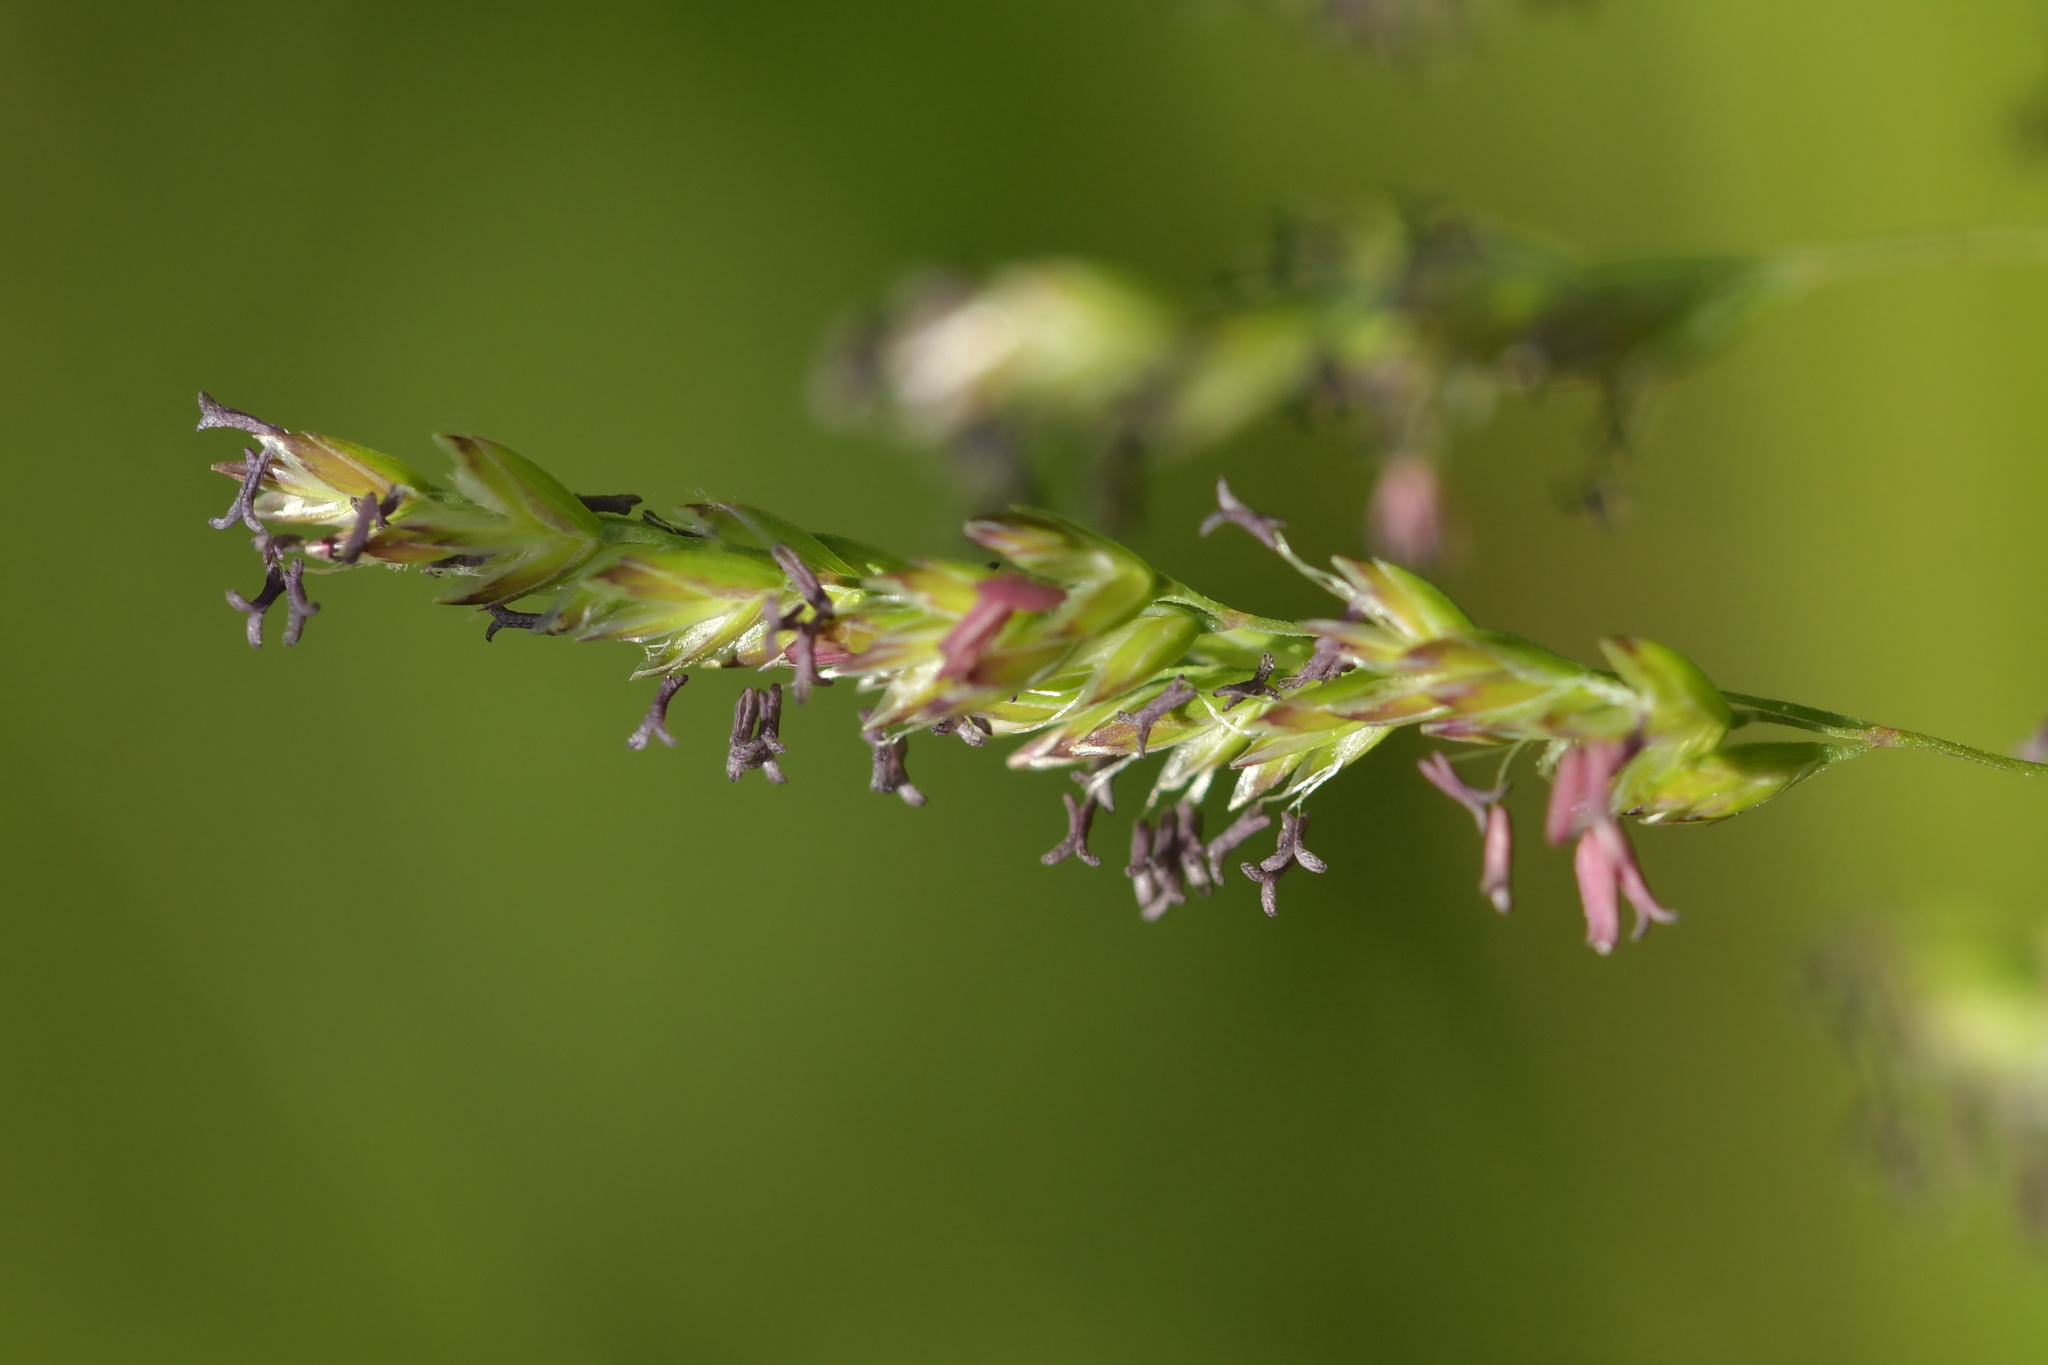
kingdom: Plantae
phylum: Tracheophyta
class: Liliopsida
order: Poales
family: Poaceae
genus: Poa
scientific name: Poa trivialis
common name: Rough bluegrass
